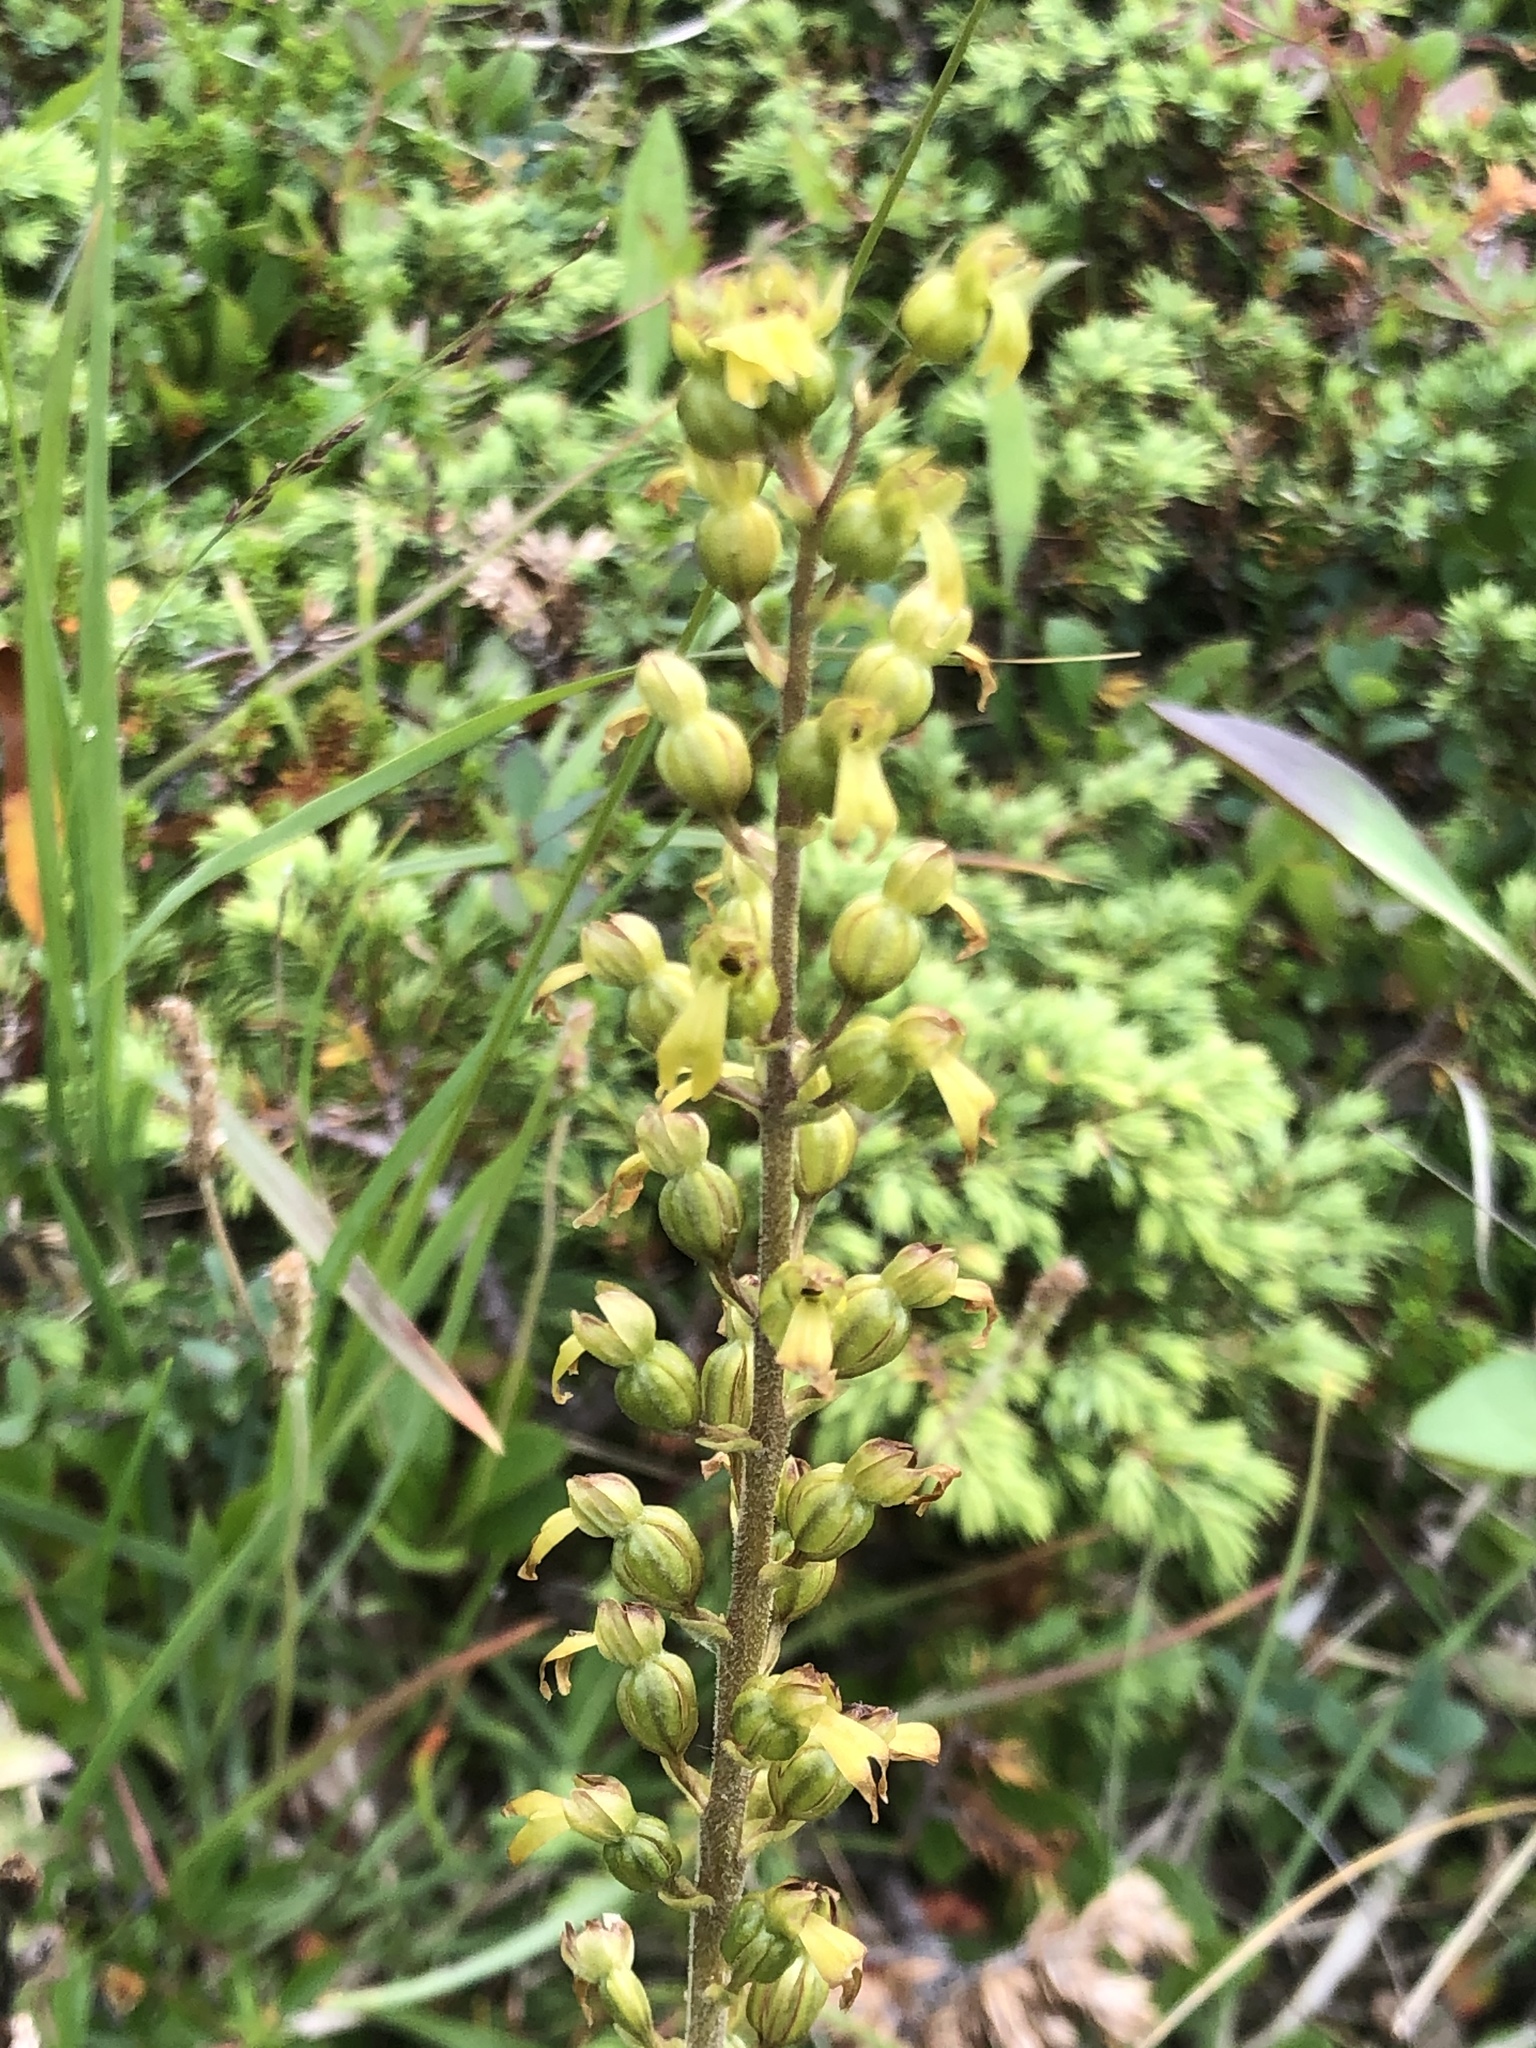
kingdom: Plantae
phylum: Tracheophyta
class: Liliopsida
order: Asparagales
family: Orchidaceae
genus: Neottia
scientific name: Neottia ovata
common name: Common twayblade
